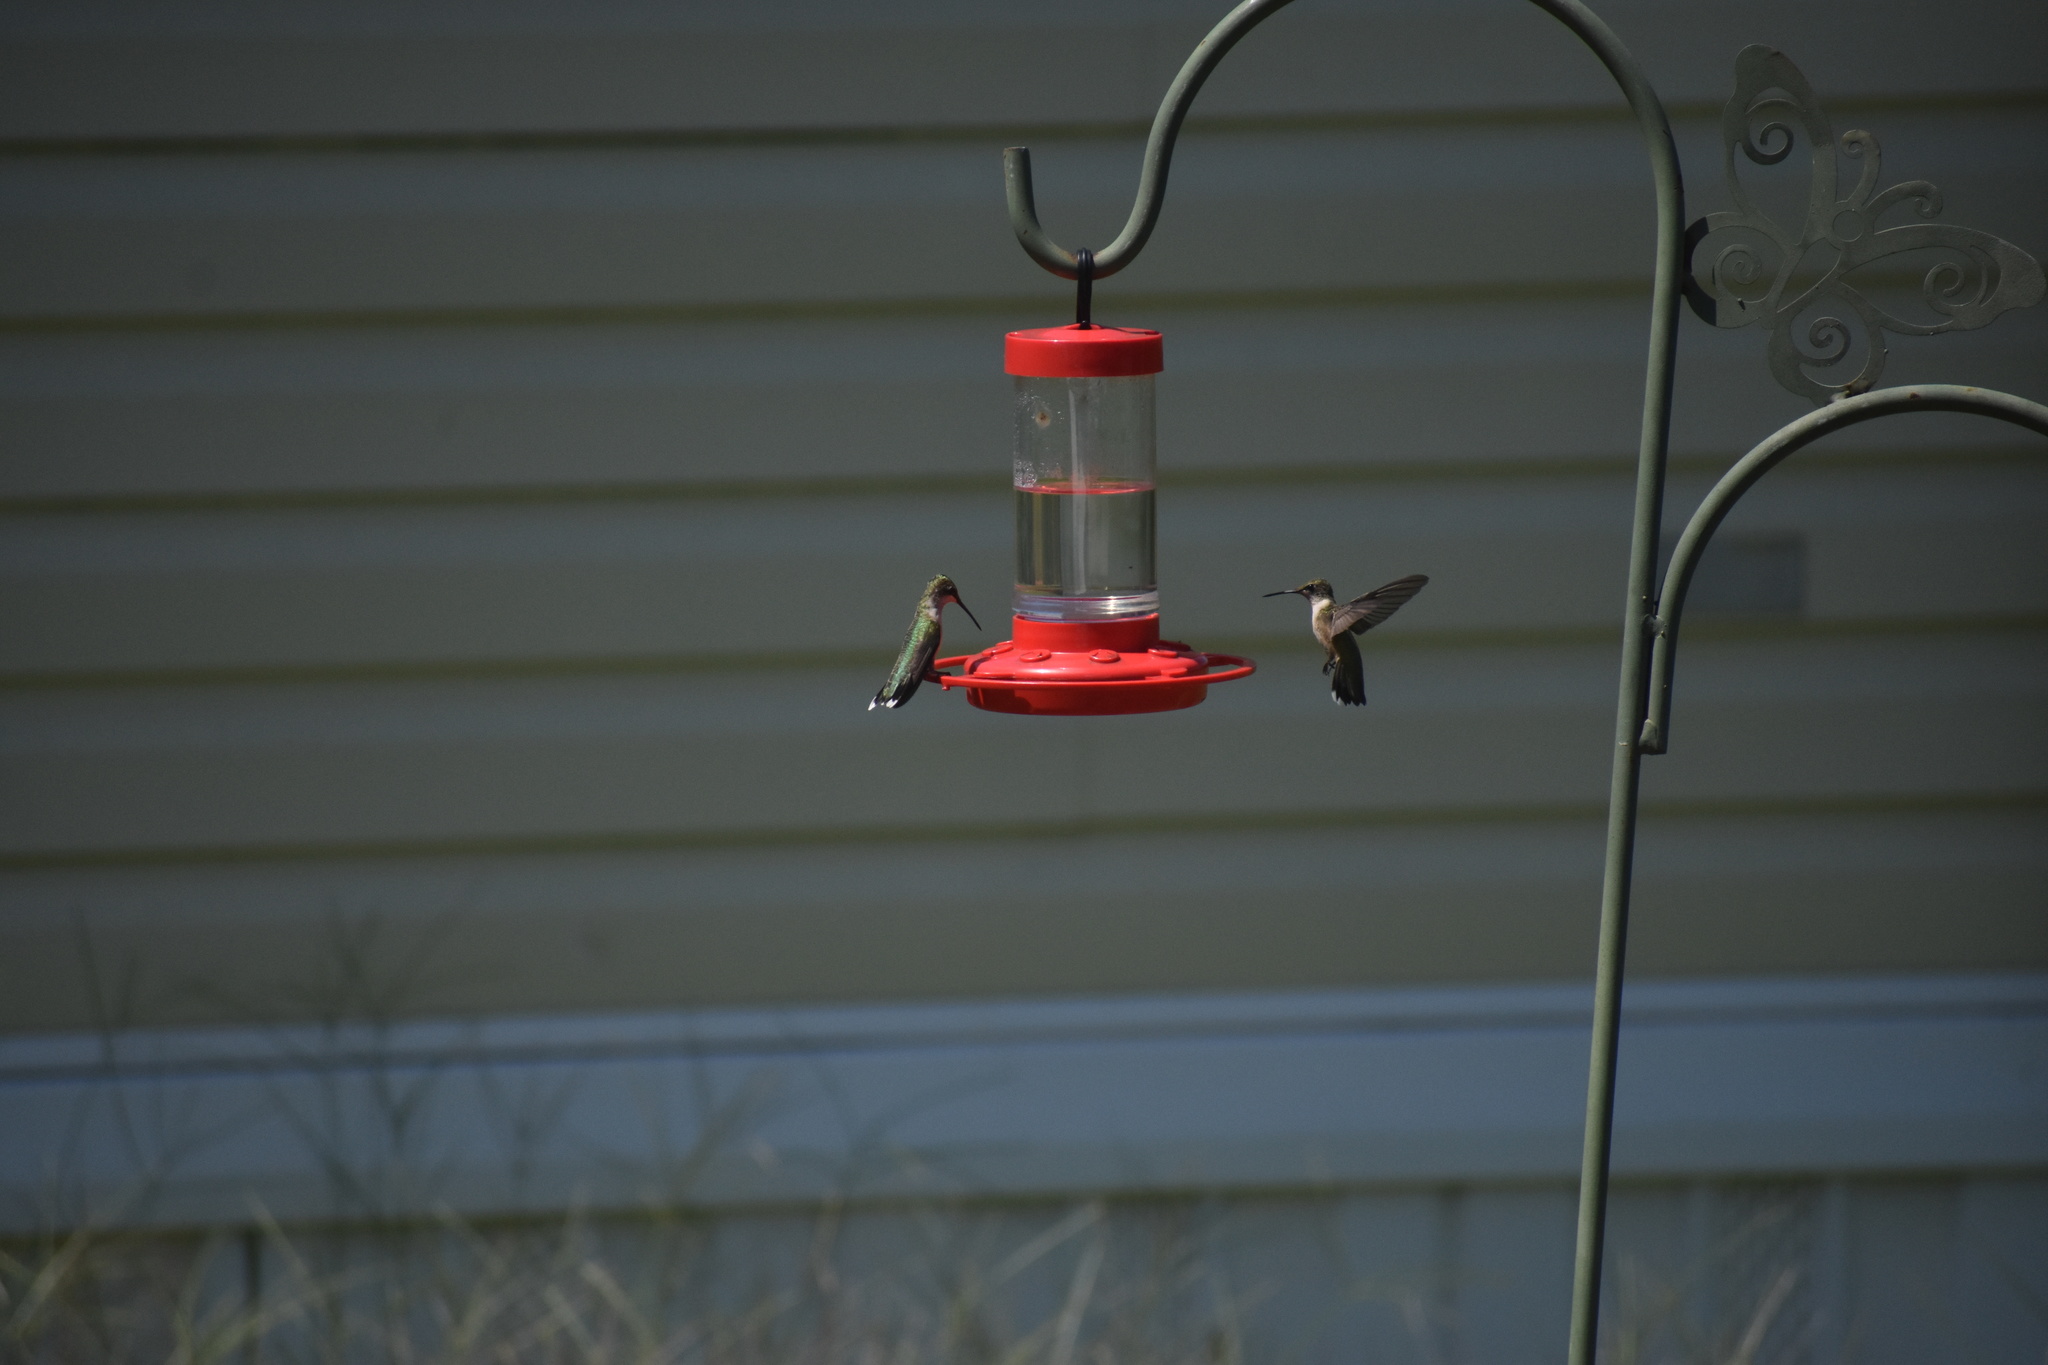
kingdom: Animalia
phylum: Chordata
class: Aves
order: Apodiformes
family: Trochilidae
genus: Archilochus
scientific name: Archilochus colubris
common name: Ruby-throated hummingbird
